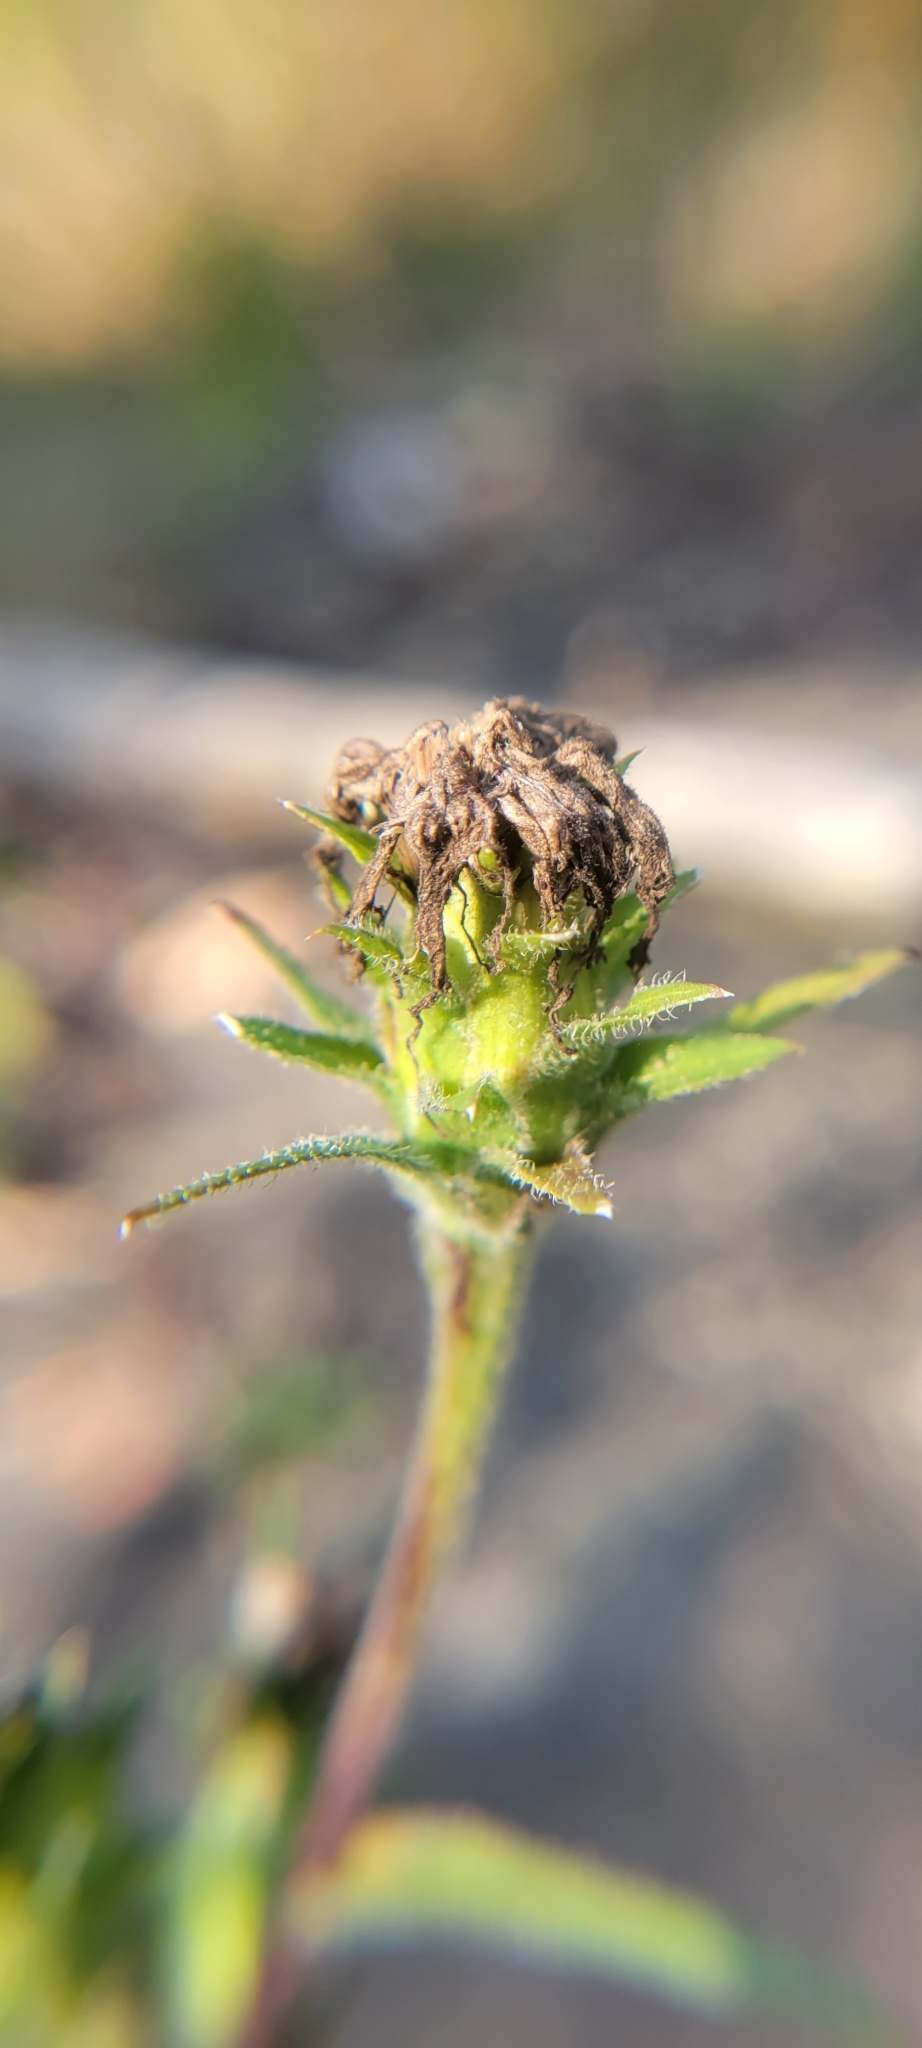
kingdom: Plantae
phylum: Tracheophyta
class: Magnoliopsida
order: Asterales
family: Asteraceae
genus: Liatris
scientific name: Liatris squarrosa
